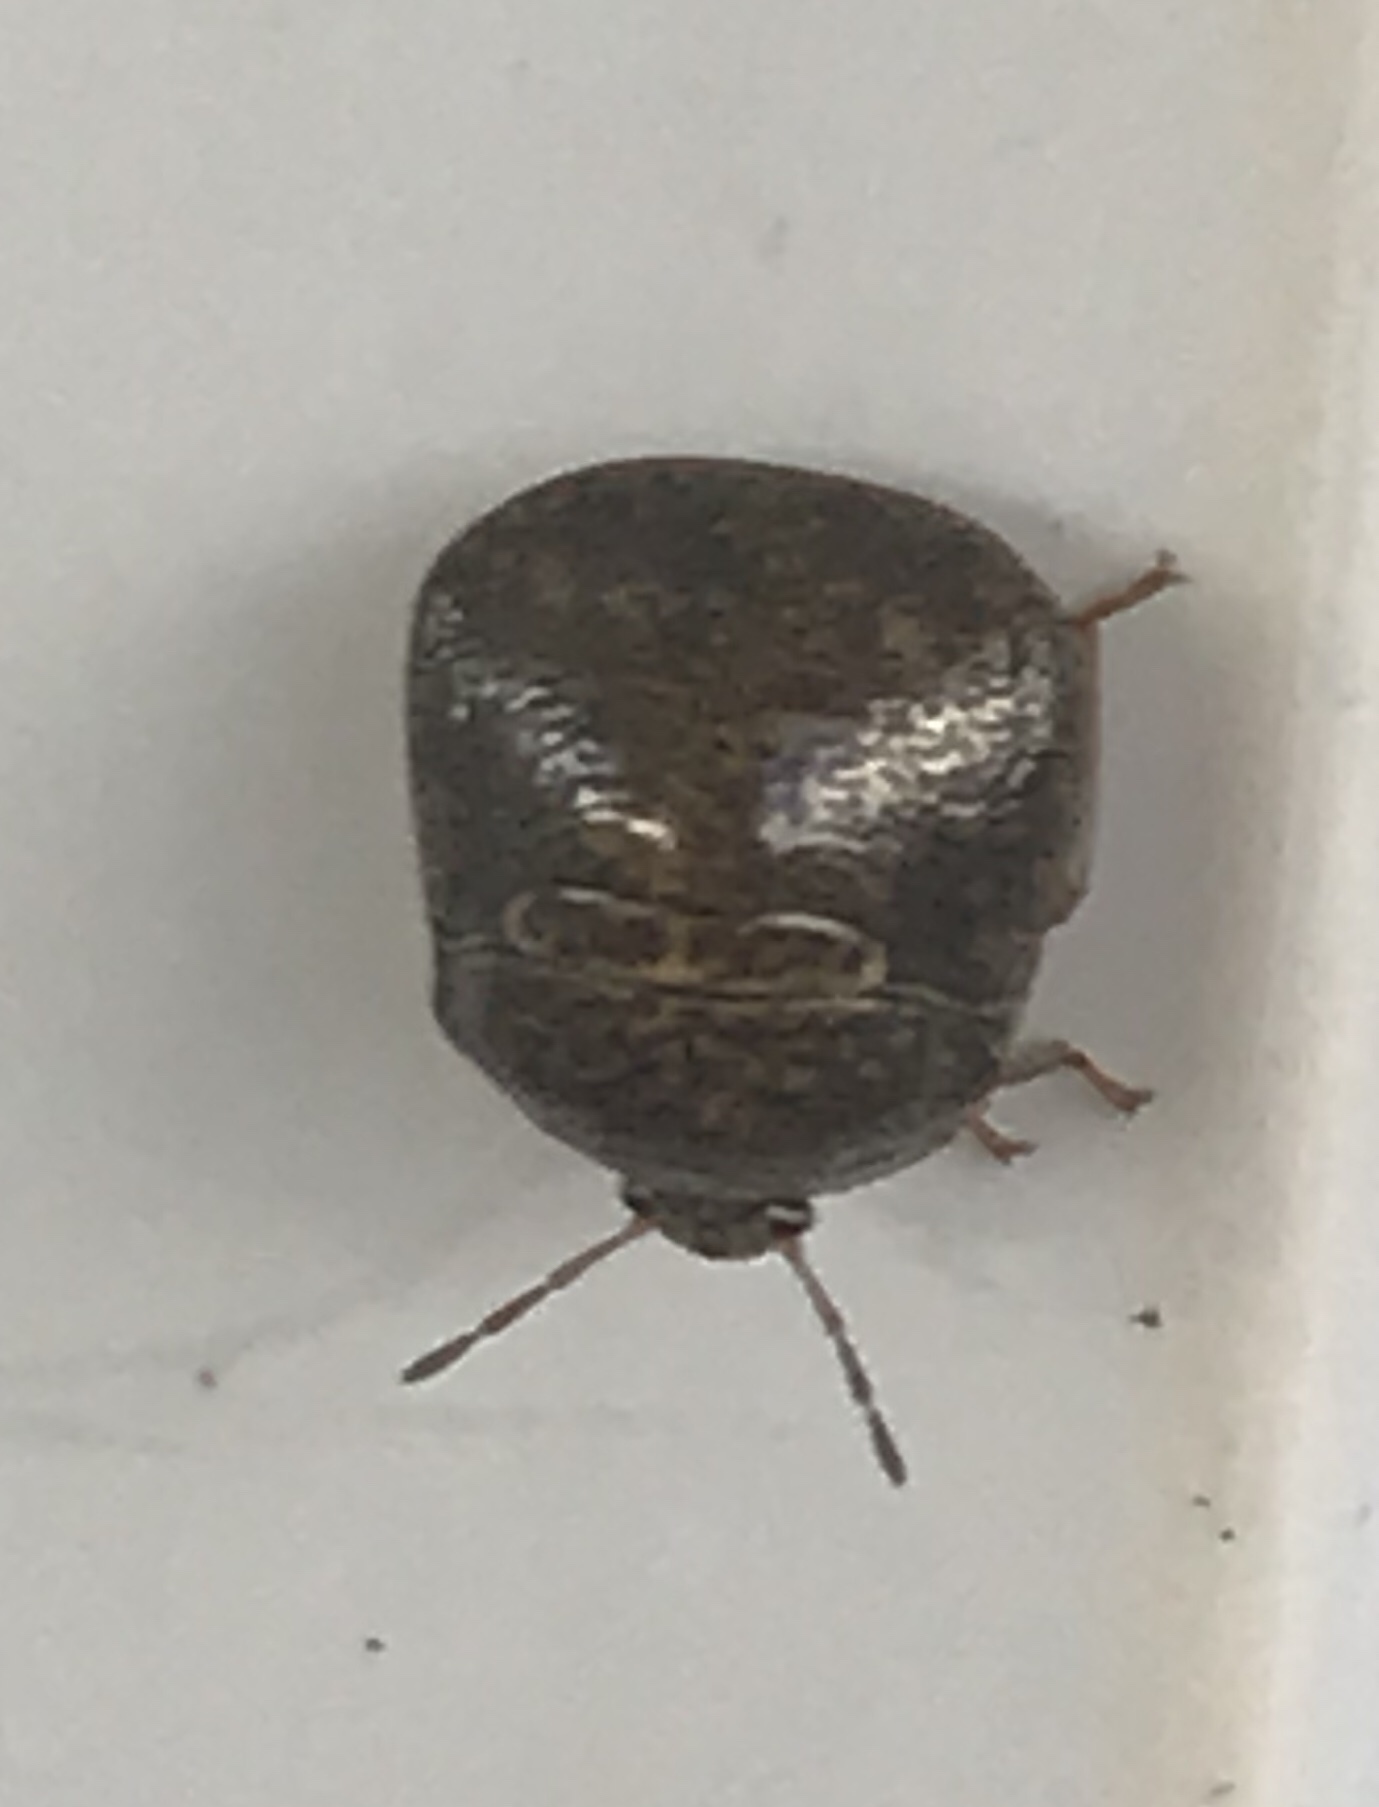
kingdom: Animalia
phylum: Arthropoda
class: Insecta
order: Hemiptera
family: Plataspidae
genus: Megacopta
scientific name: Megacopta cribraria
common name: Bean plataspid
